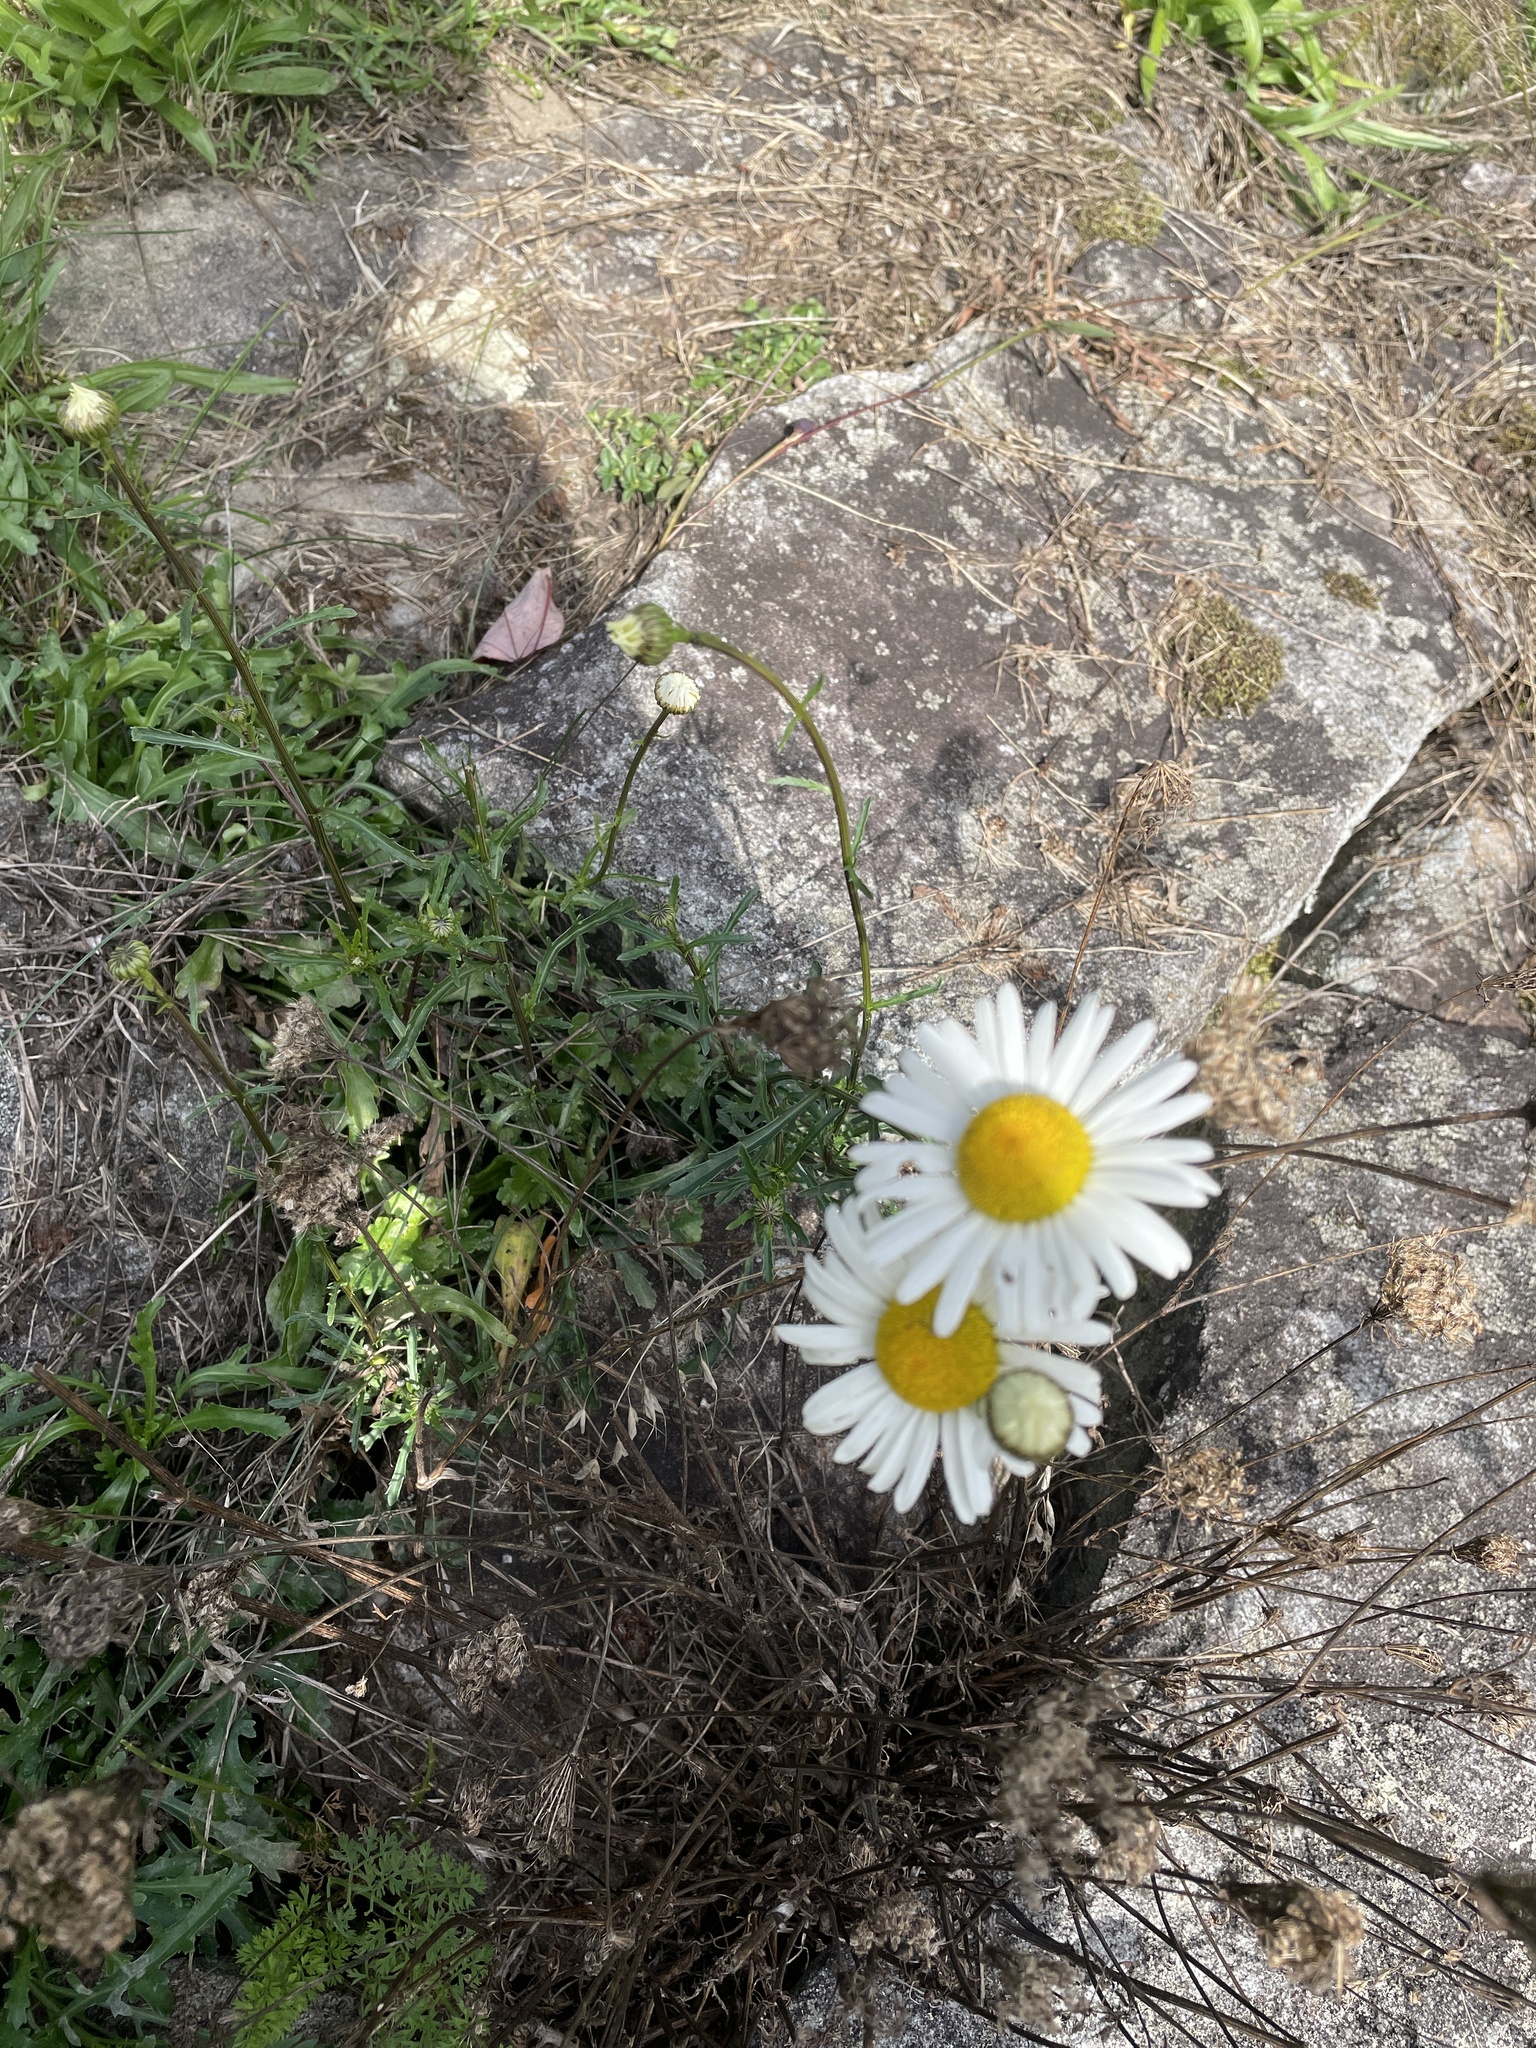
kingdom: Plantae
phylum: Tracheophyta
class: Magnoliopsida
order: Asterales
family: Asteraceae
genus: Leucanthemum
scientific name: Leucanthemum vulgare
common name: Oxeye daisy
